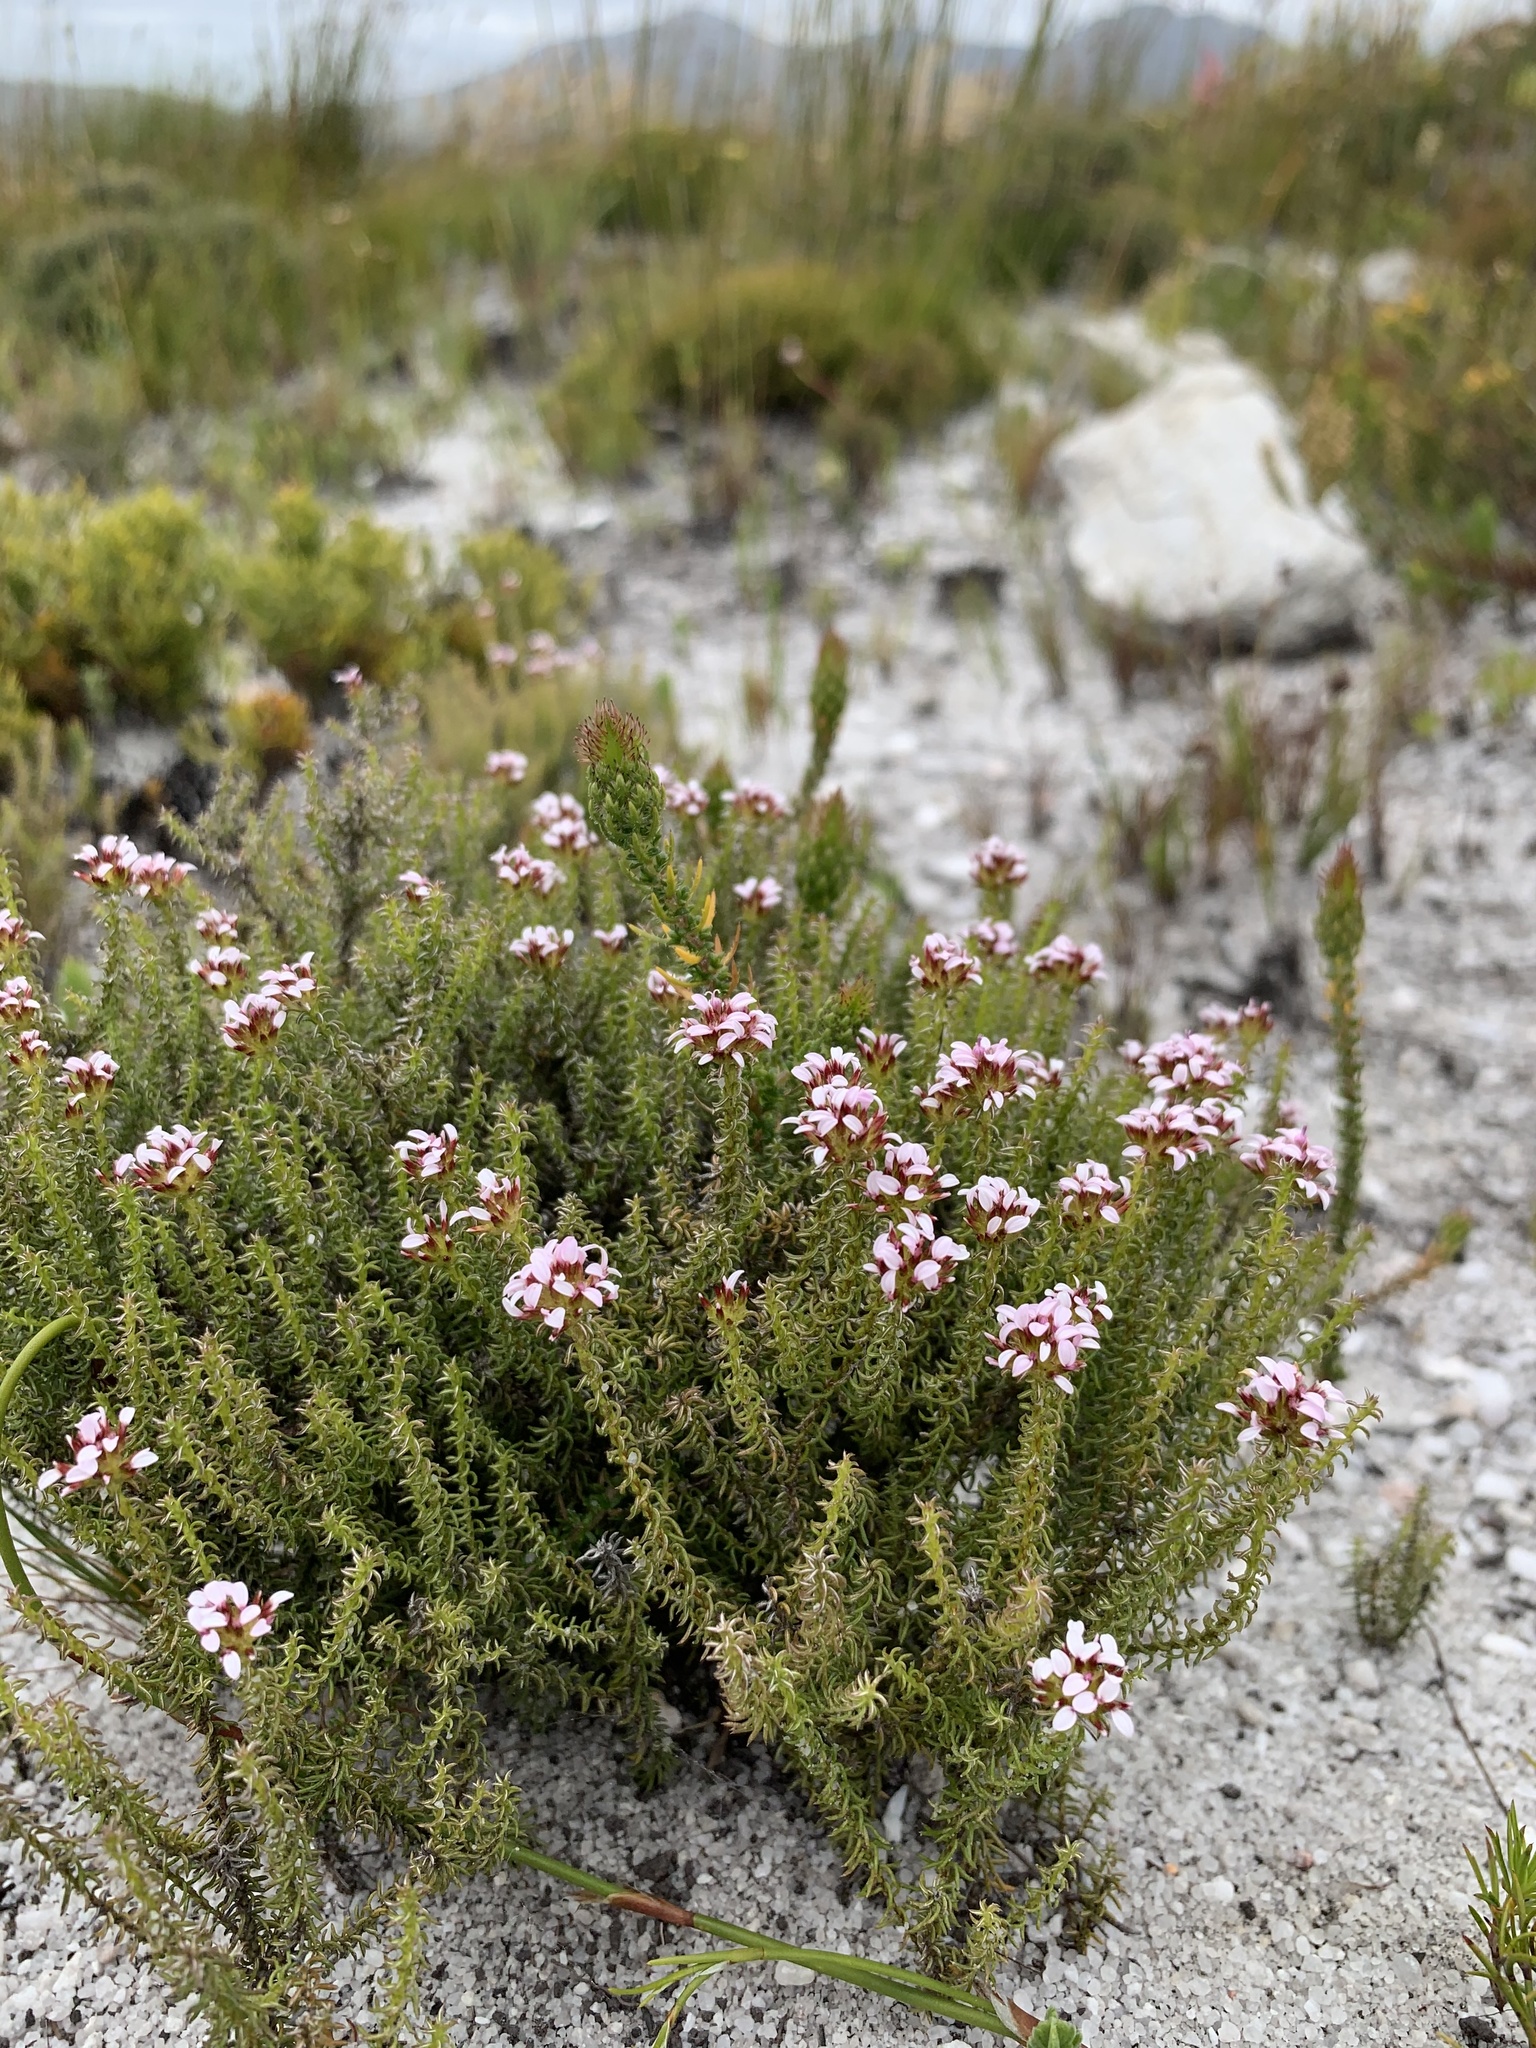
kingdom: Plantae
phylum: Tracheophyta
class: Magnoliopsida
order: Asterales
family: Asteraceae
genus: Disparago
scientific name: Disparago ericoides
